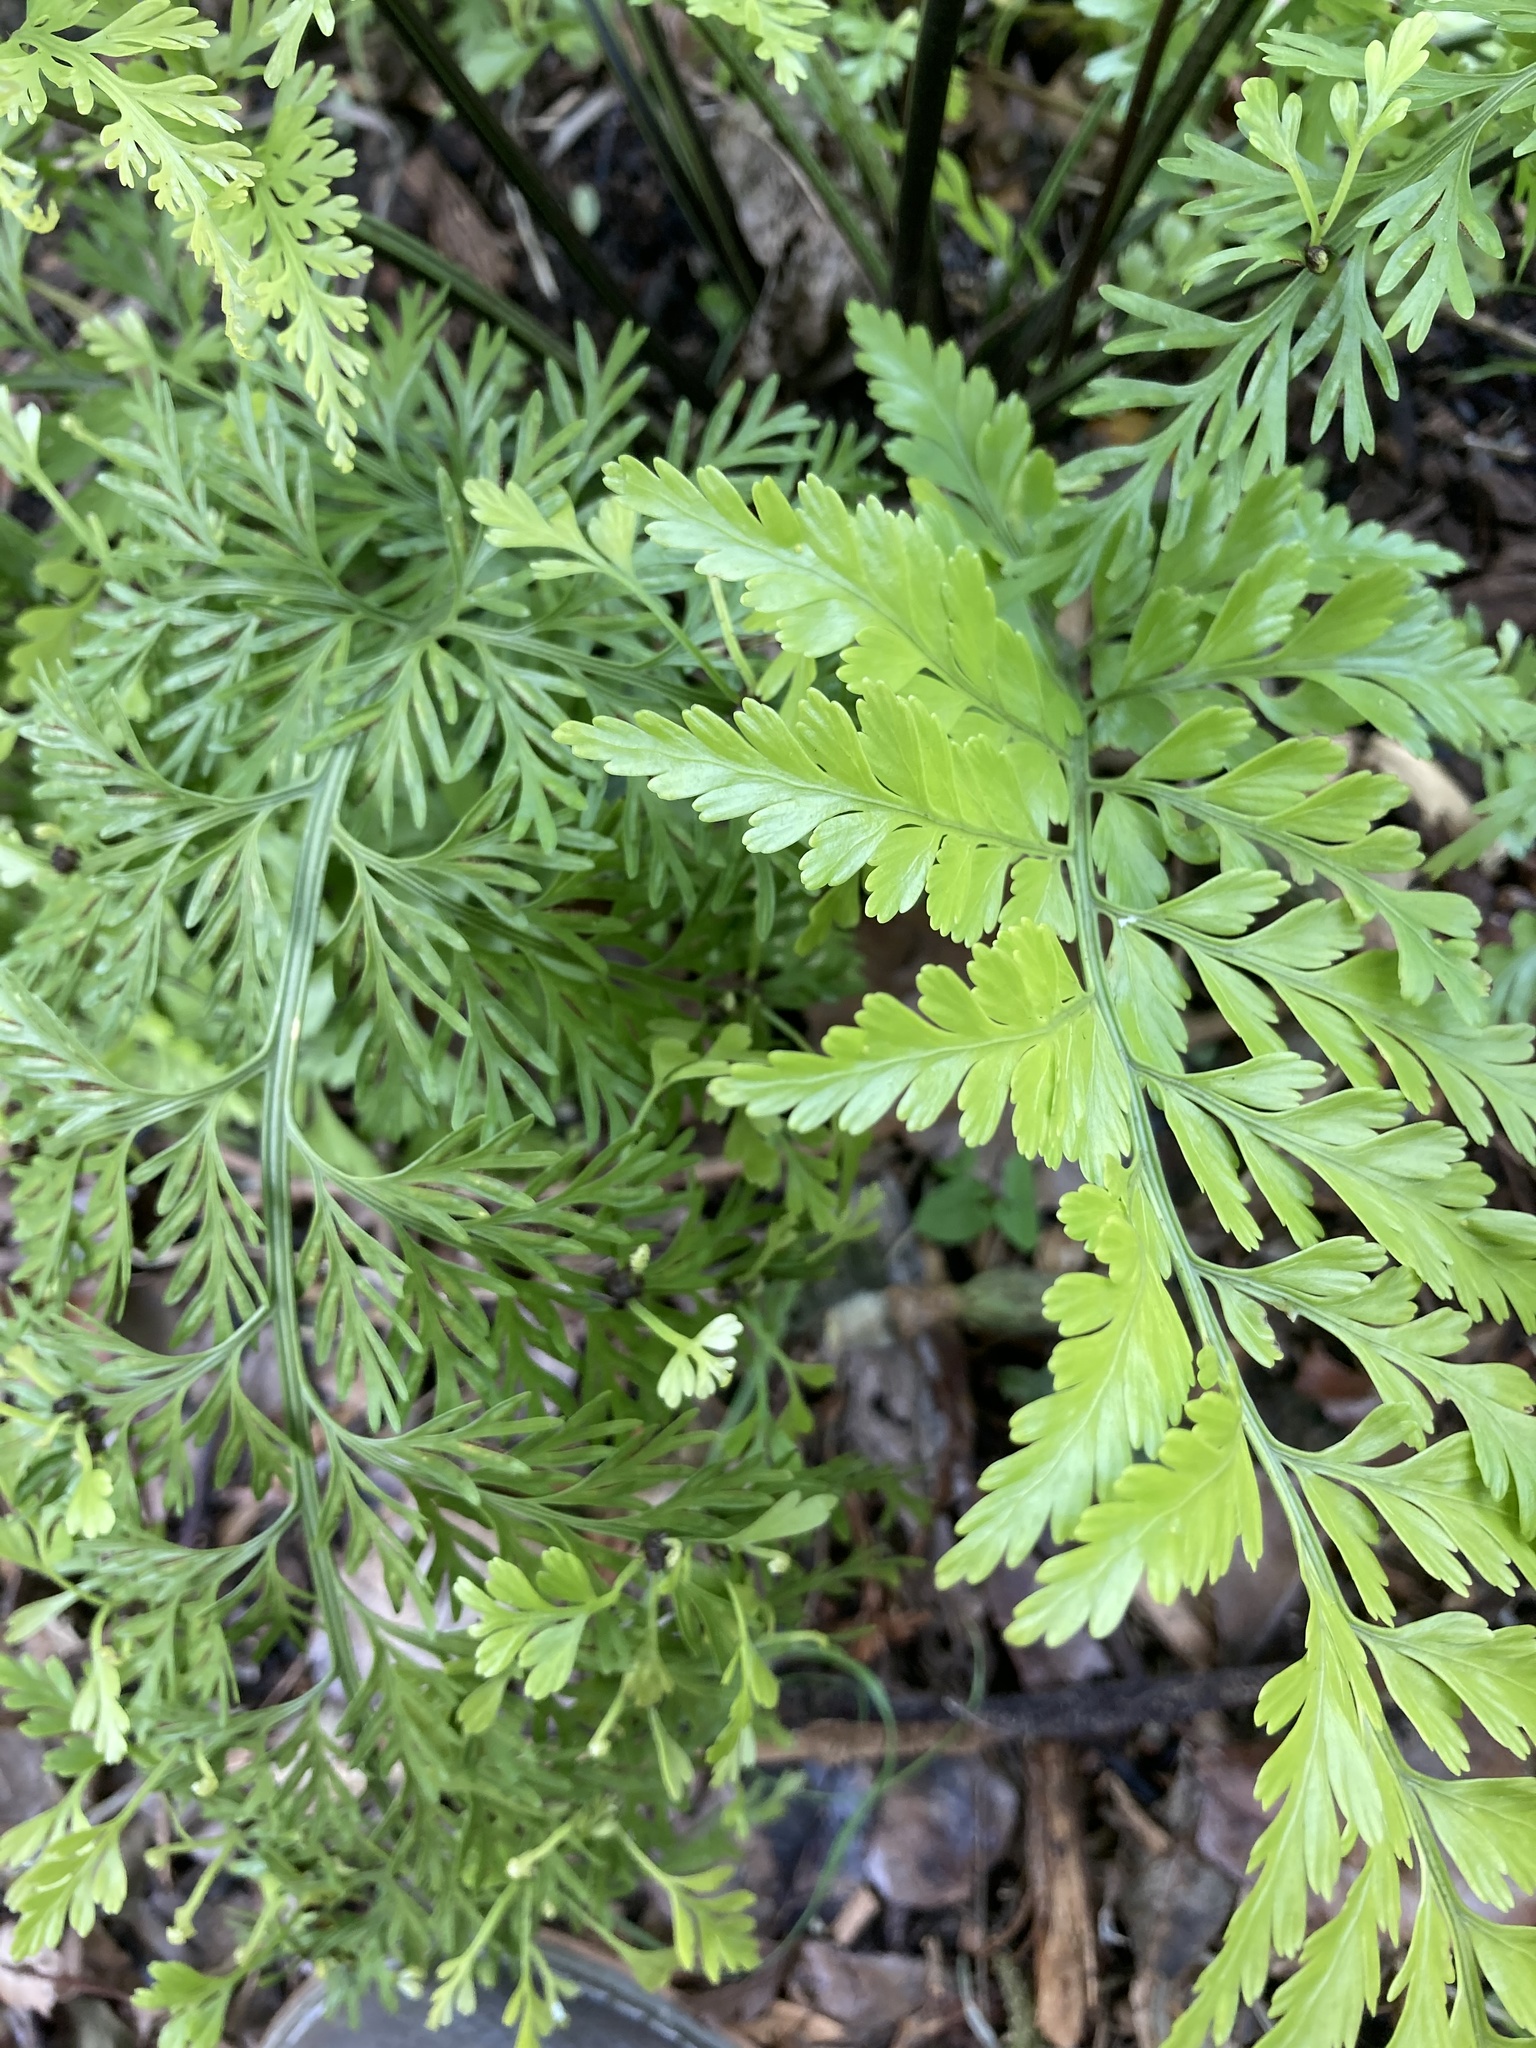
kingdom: Plantae
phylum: Tracheophyta
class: Polypodiopsida
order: Polypodiales
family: Aspleniaceae
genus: Asplenium
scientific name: Asplenium lucrosum
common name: False hen-and-chickens fern
